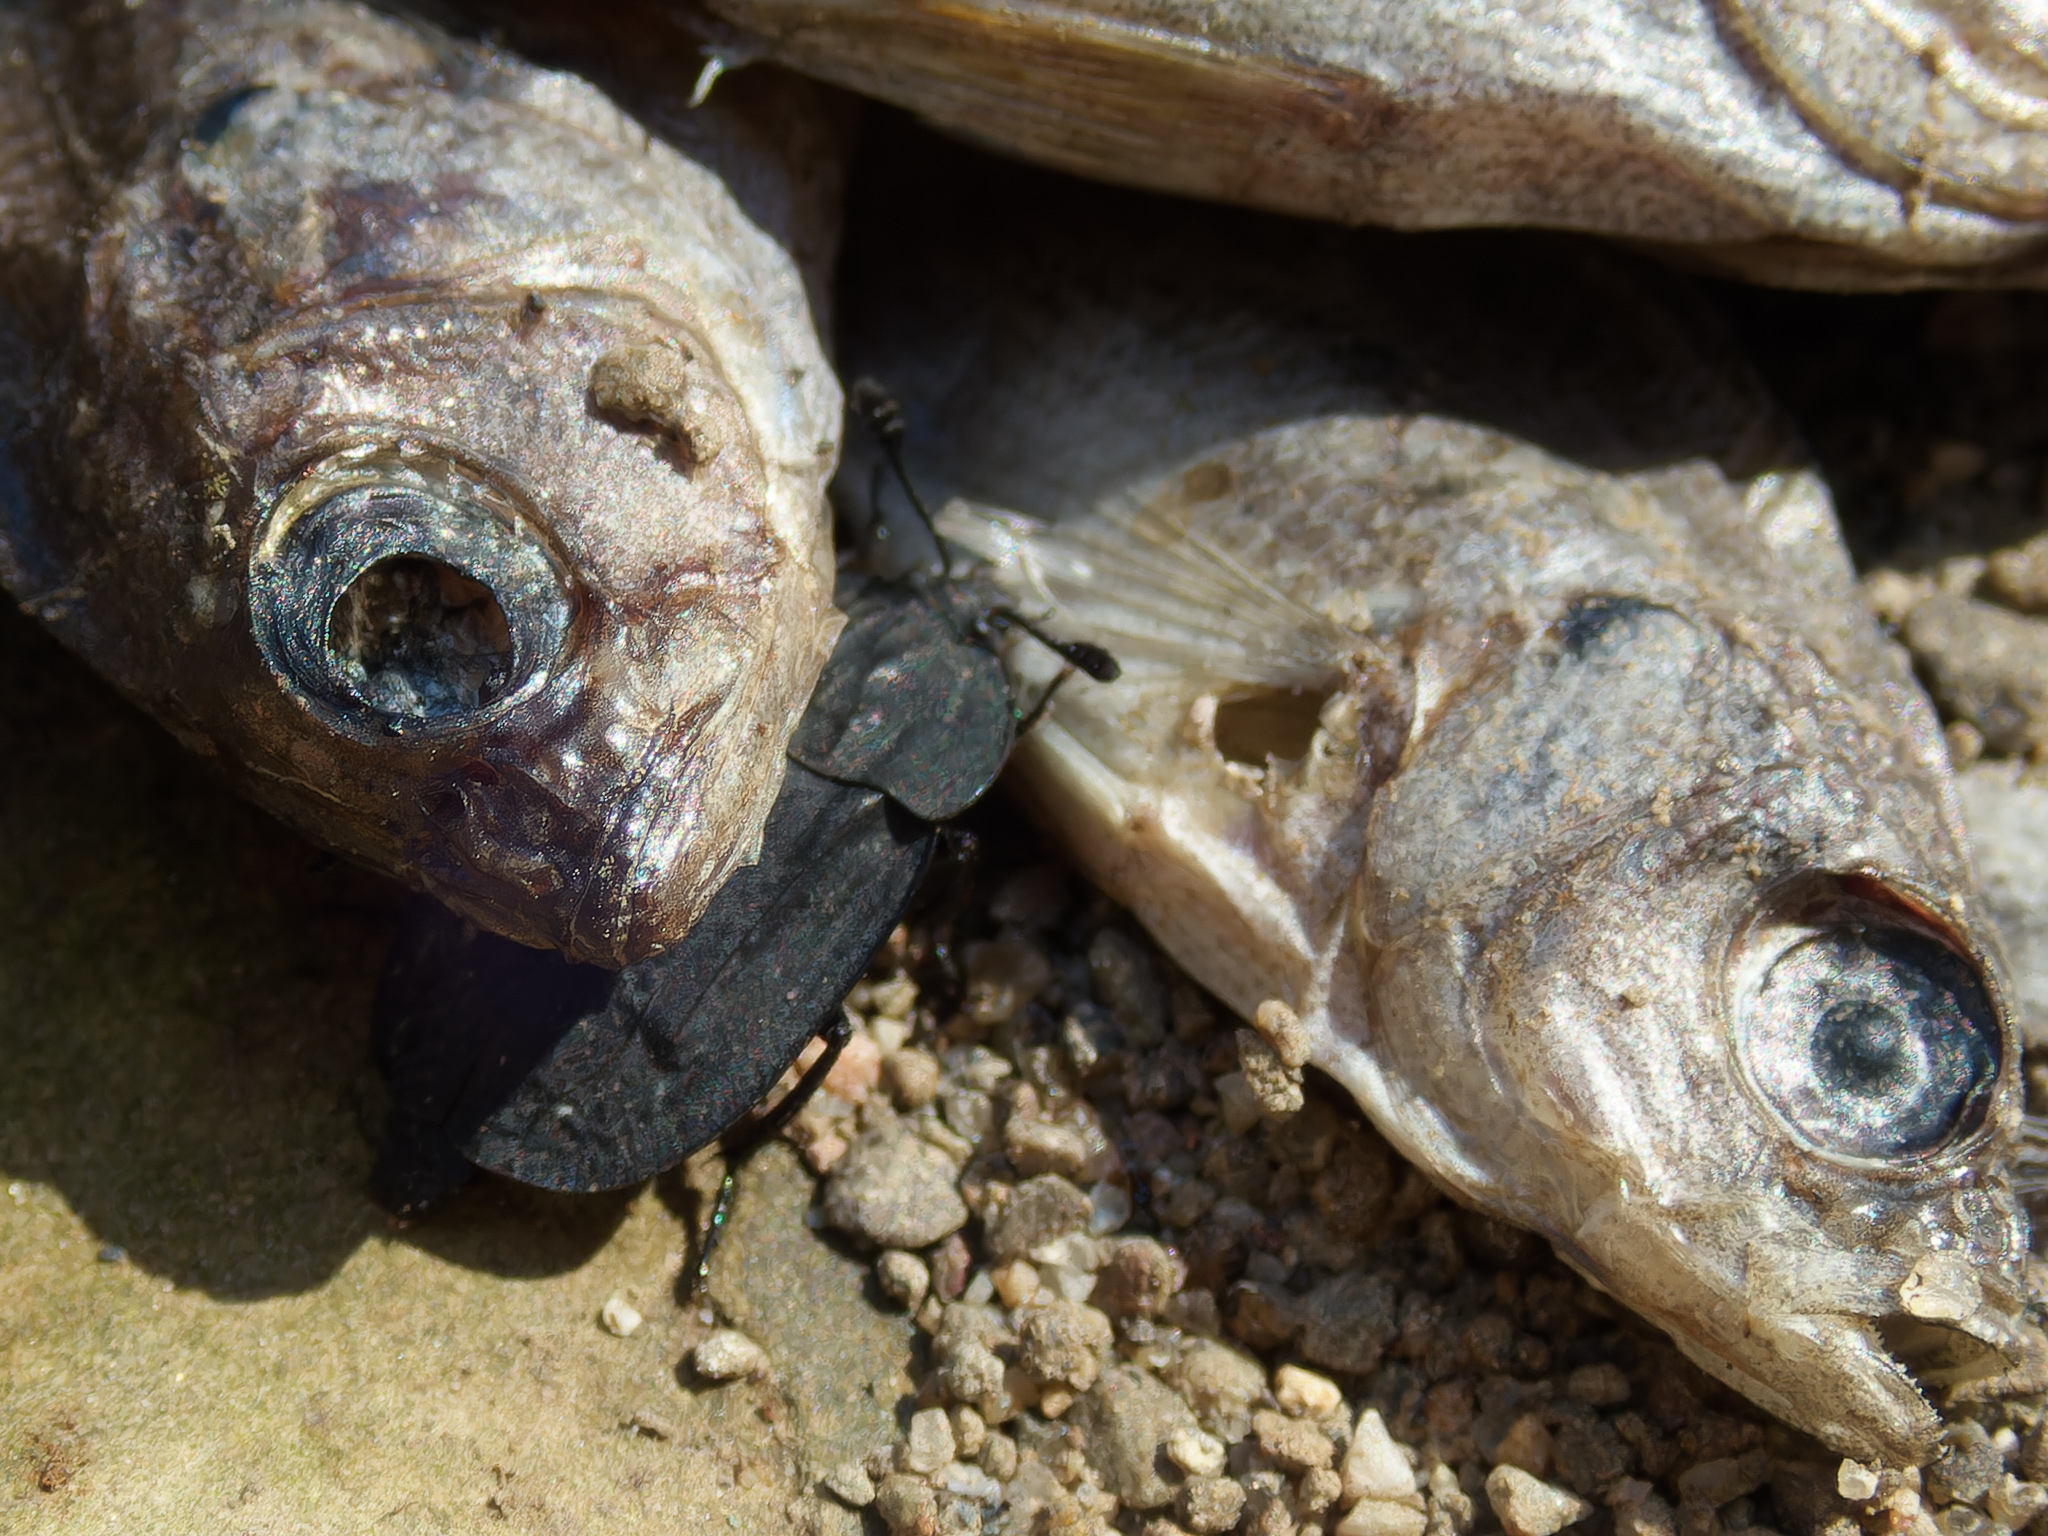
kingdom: Animalia
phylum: Chordata
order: Perciformes
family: Centrarchidae
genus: Lepomis
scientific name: Lepomis cyanellus
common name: Green sunfish
